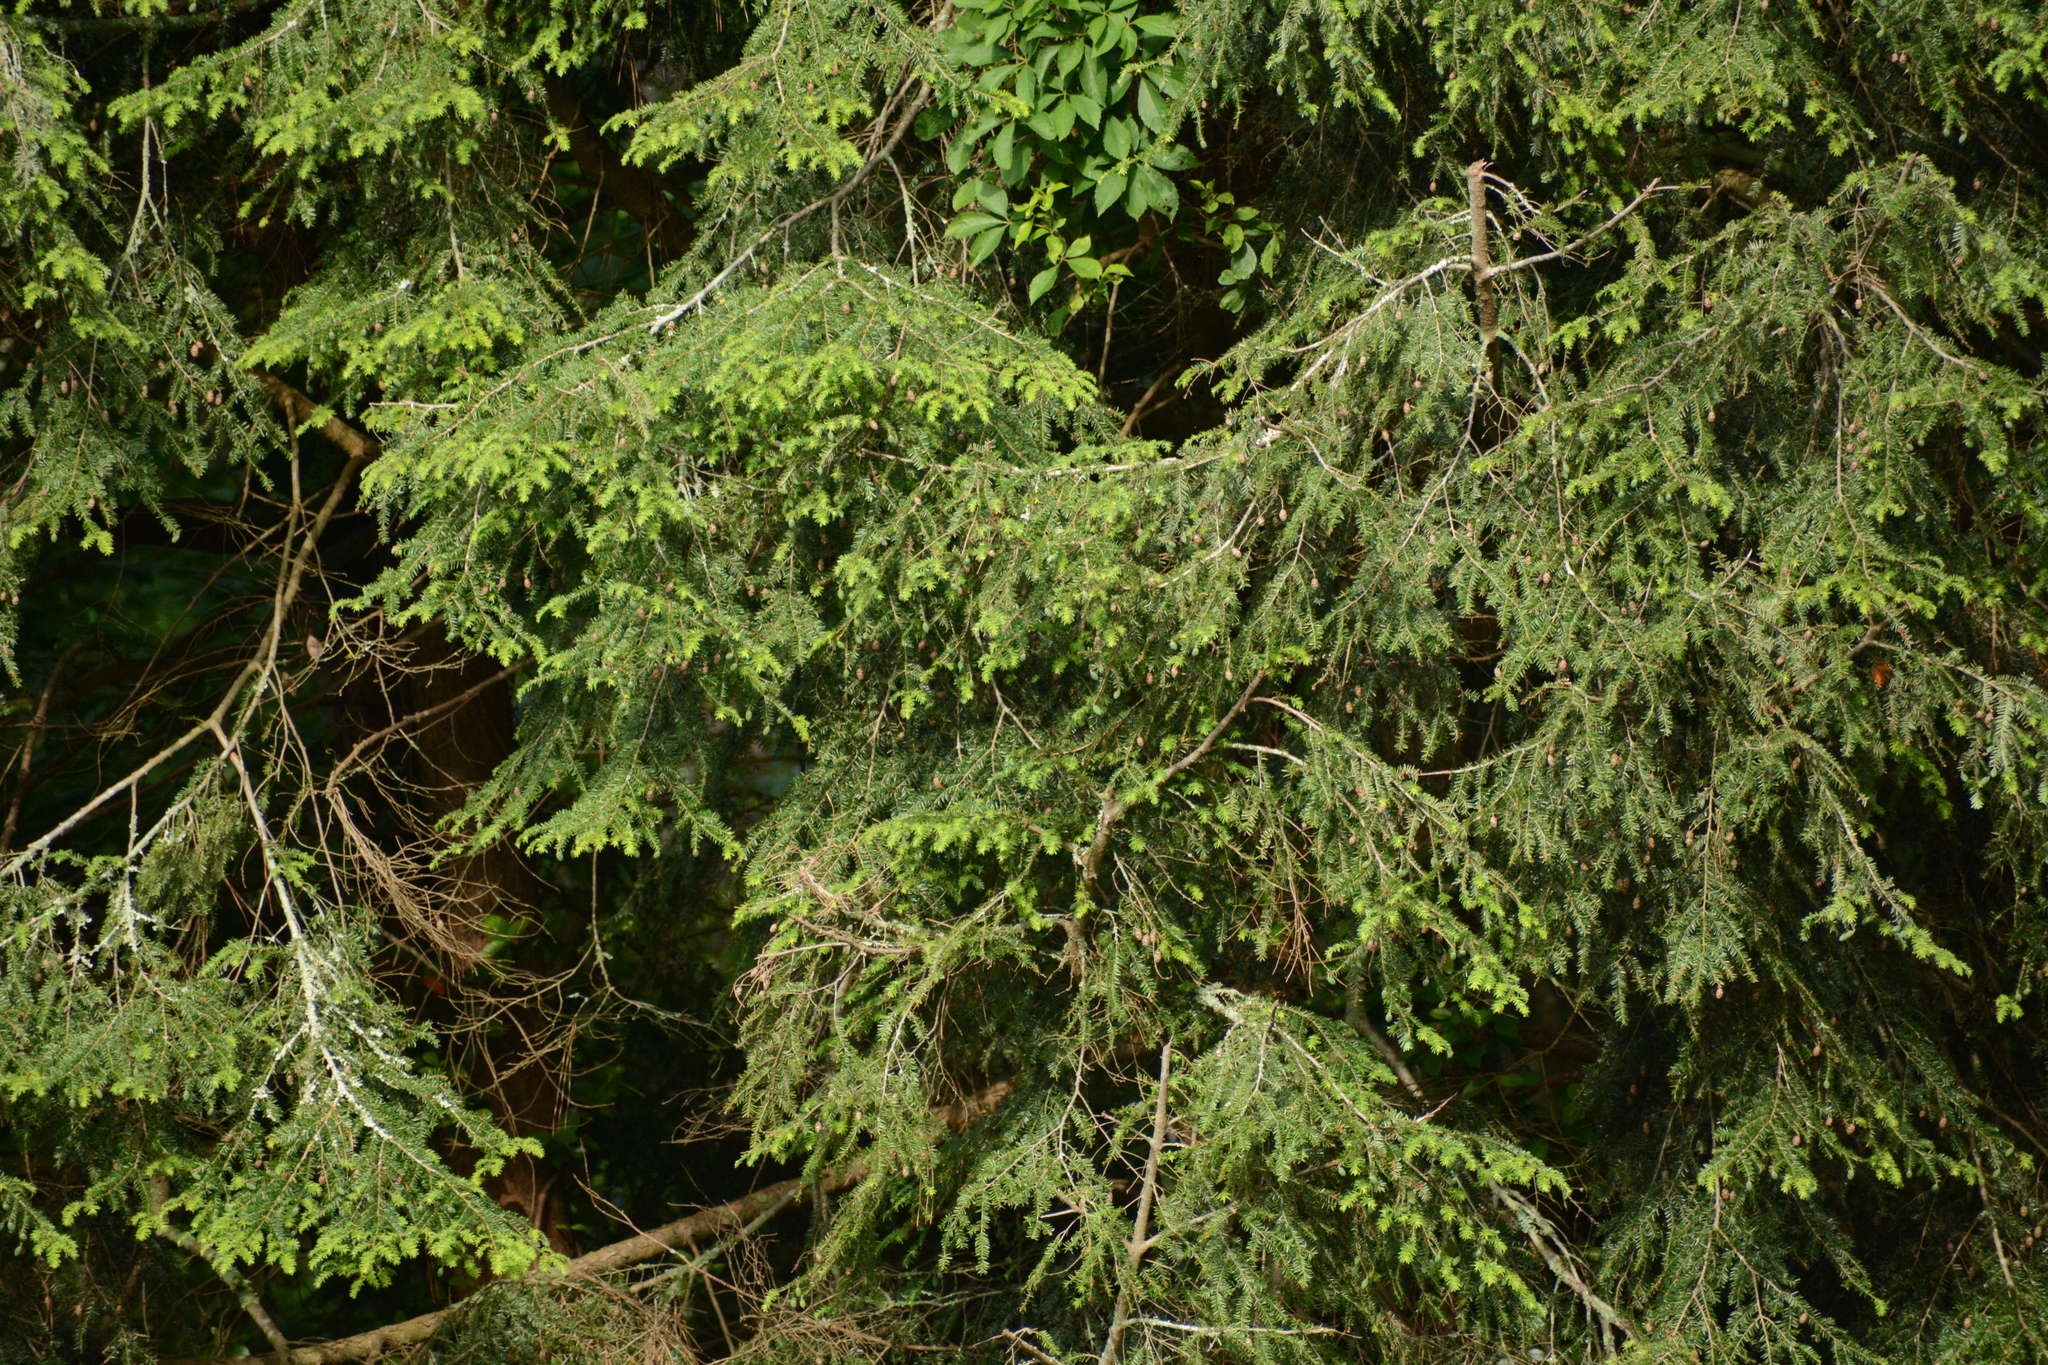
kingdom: Plantae
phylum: Tracheophyta
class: Pinopsida
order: Pinales
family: Pinaceae
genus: Tsuga
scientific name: Tsuga canadensis
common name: Eastern hemlock
